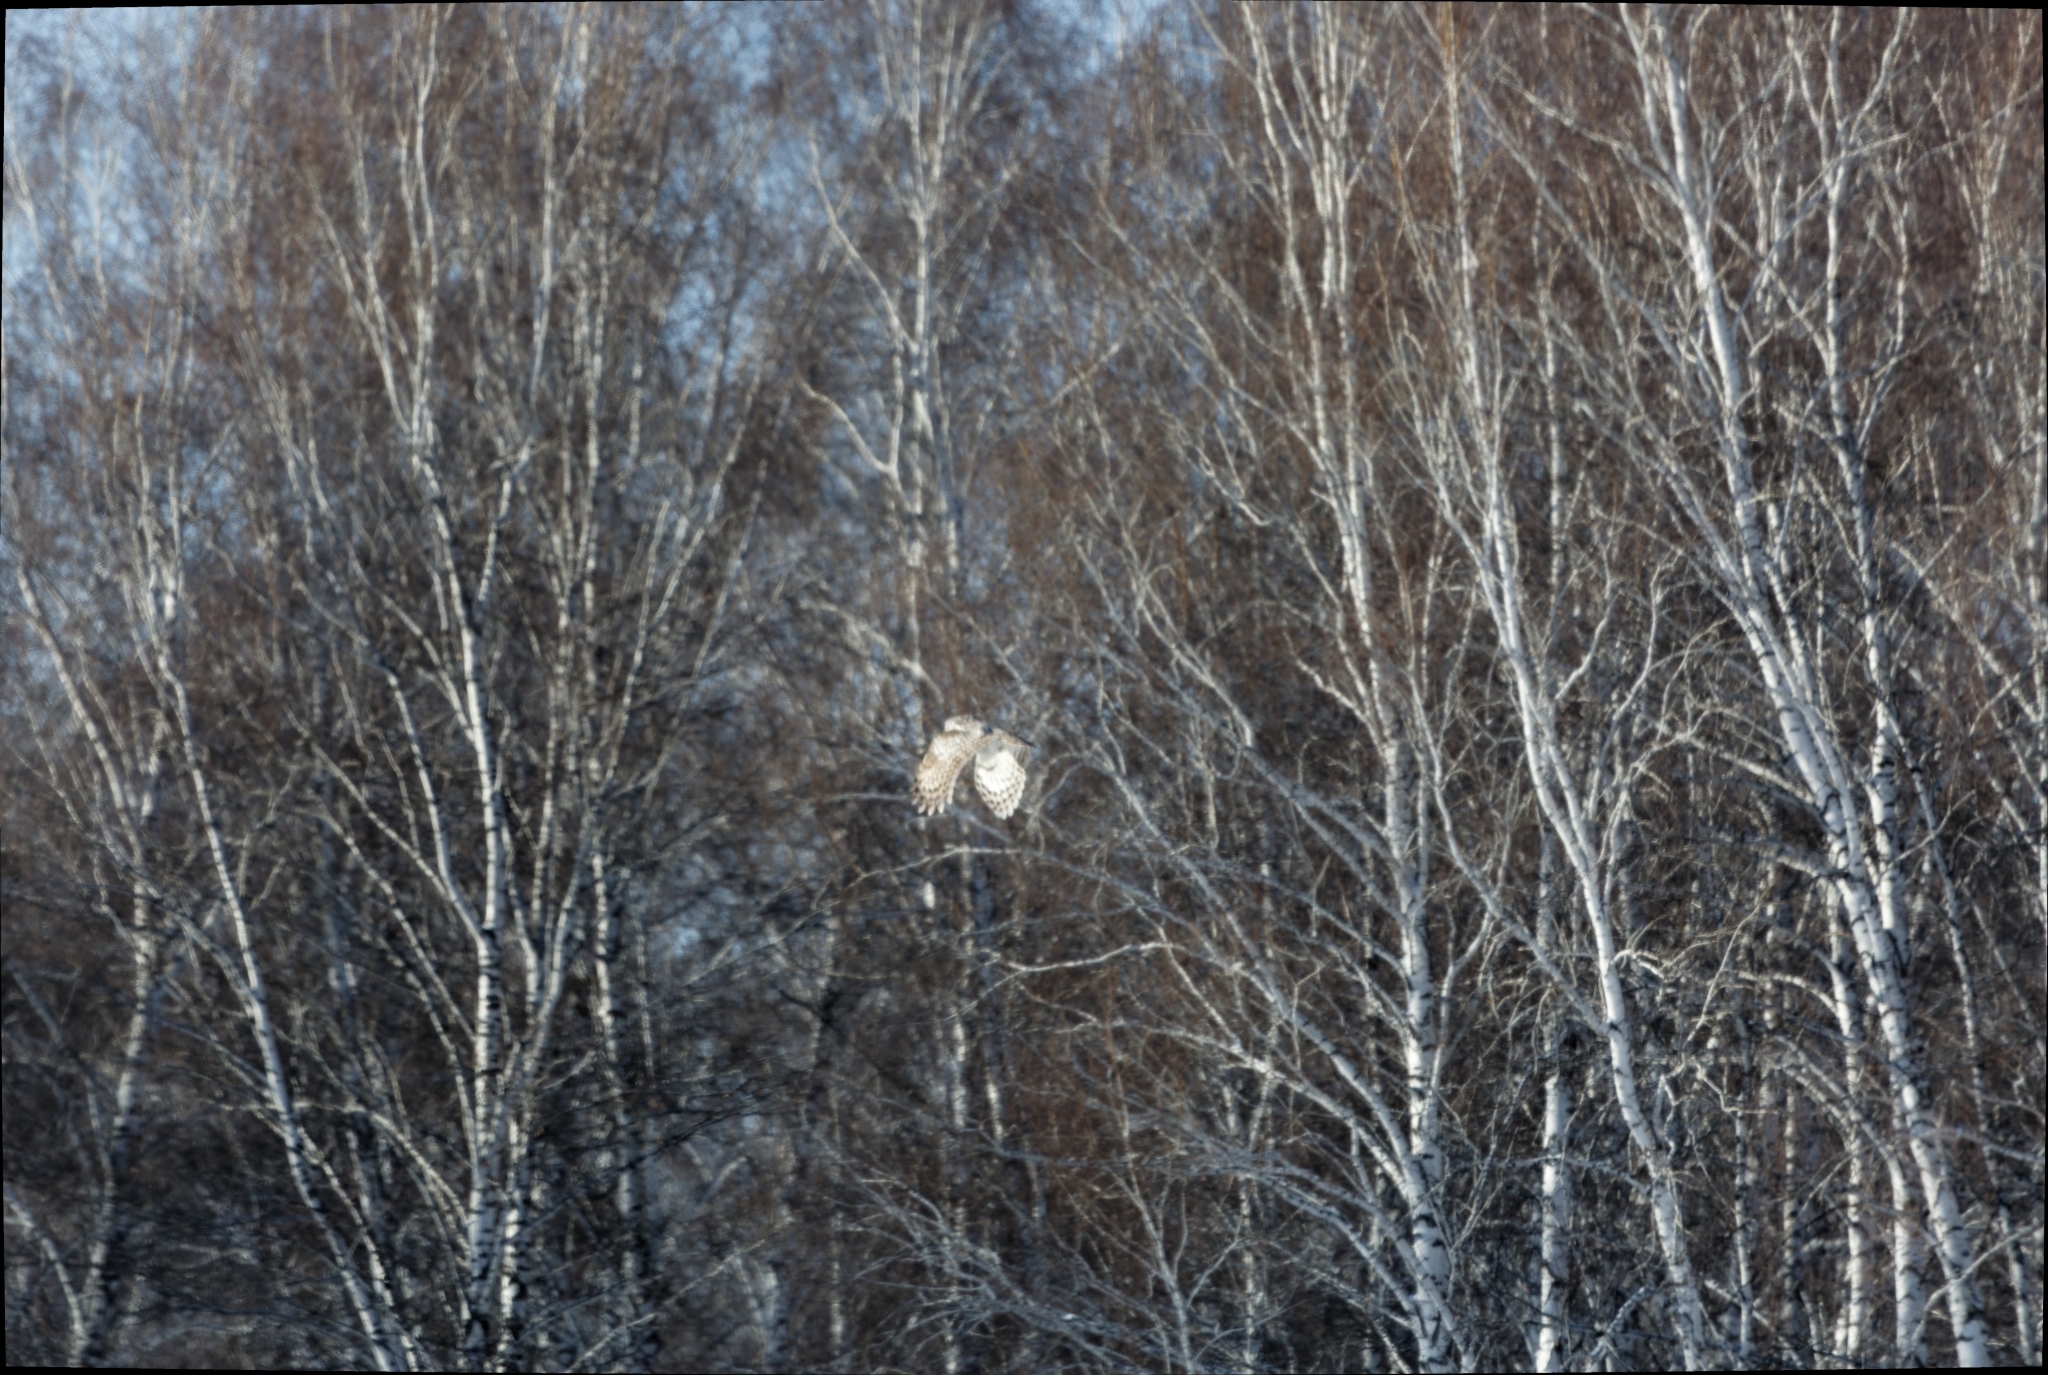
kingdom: Animalia
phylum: Chordata
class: Aves
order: Strigiformes
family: Strigidae
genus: Strix
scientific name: Strix uralensis
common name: Ural owl
